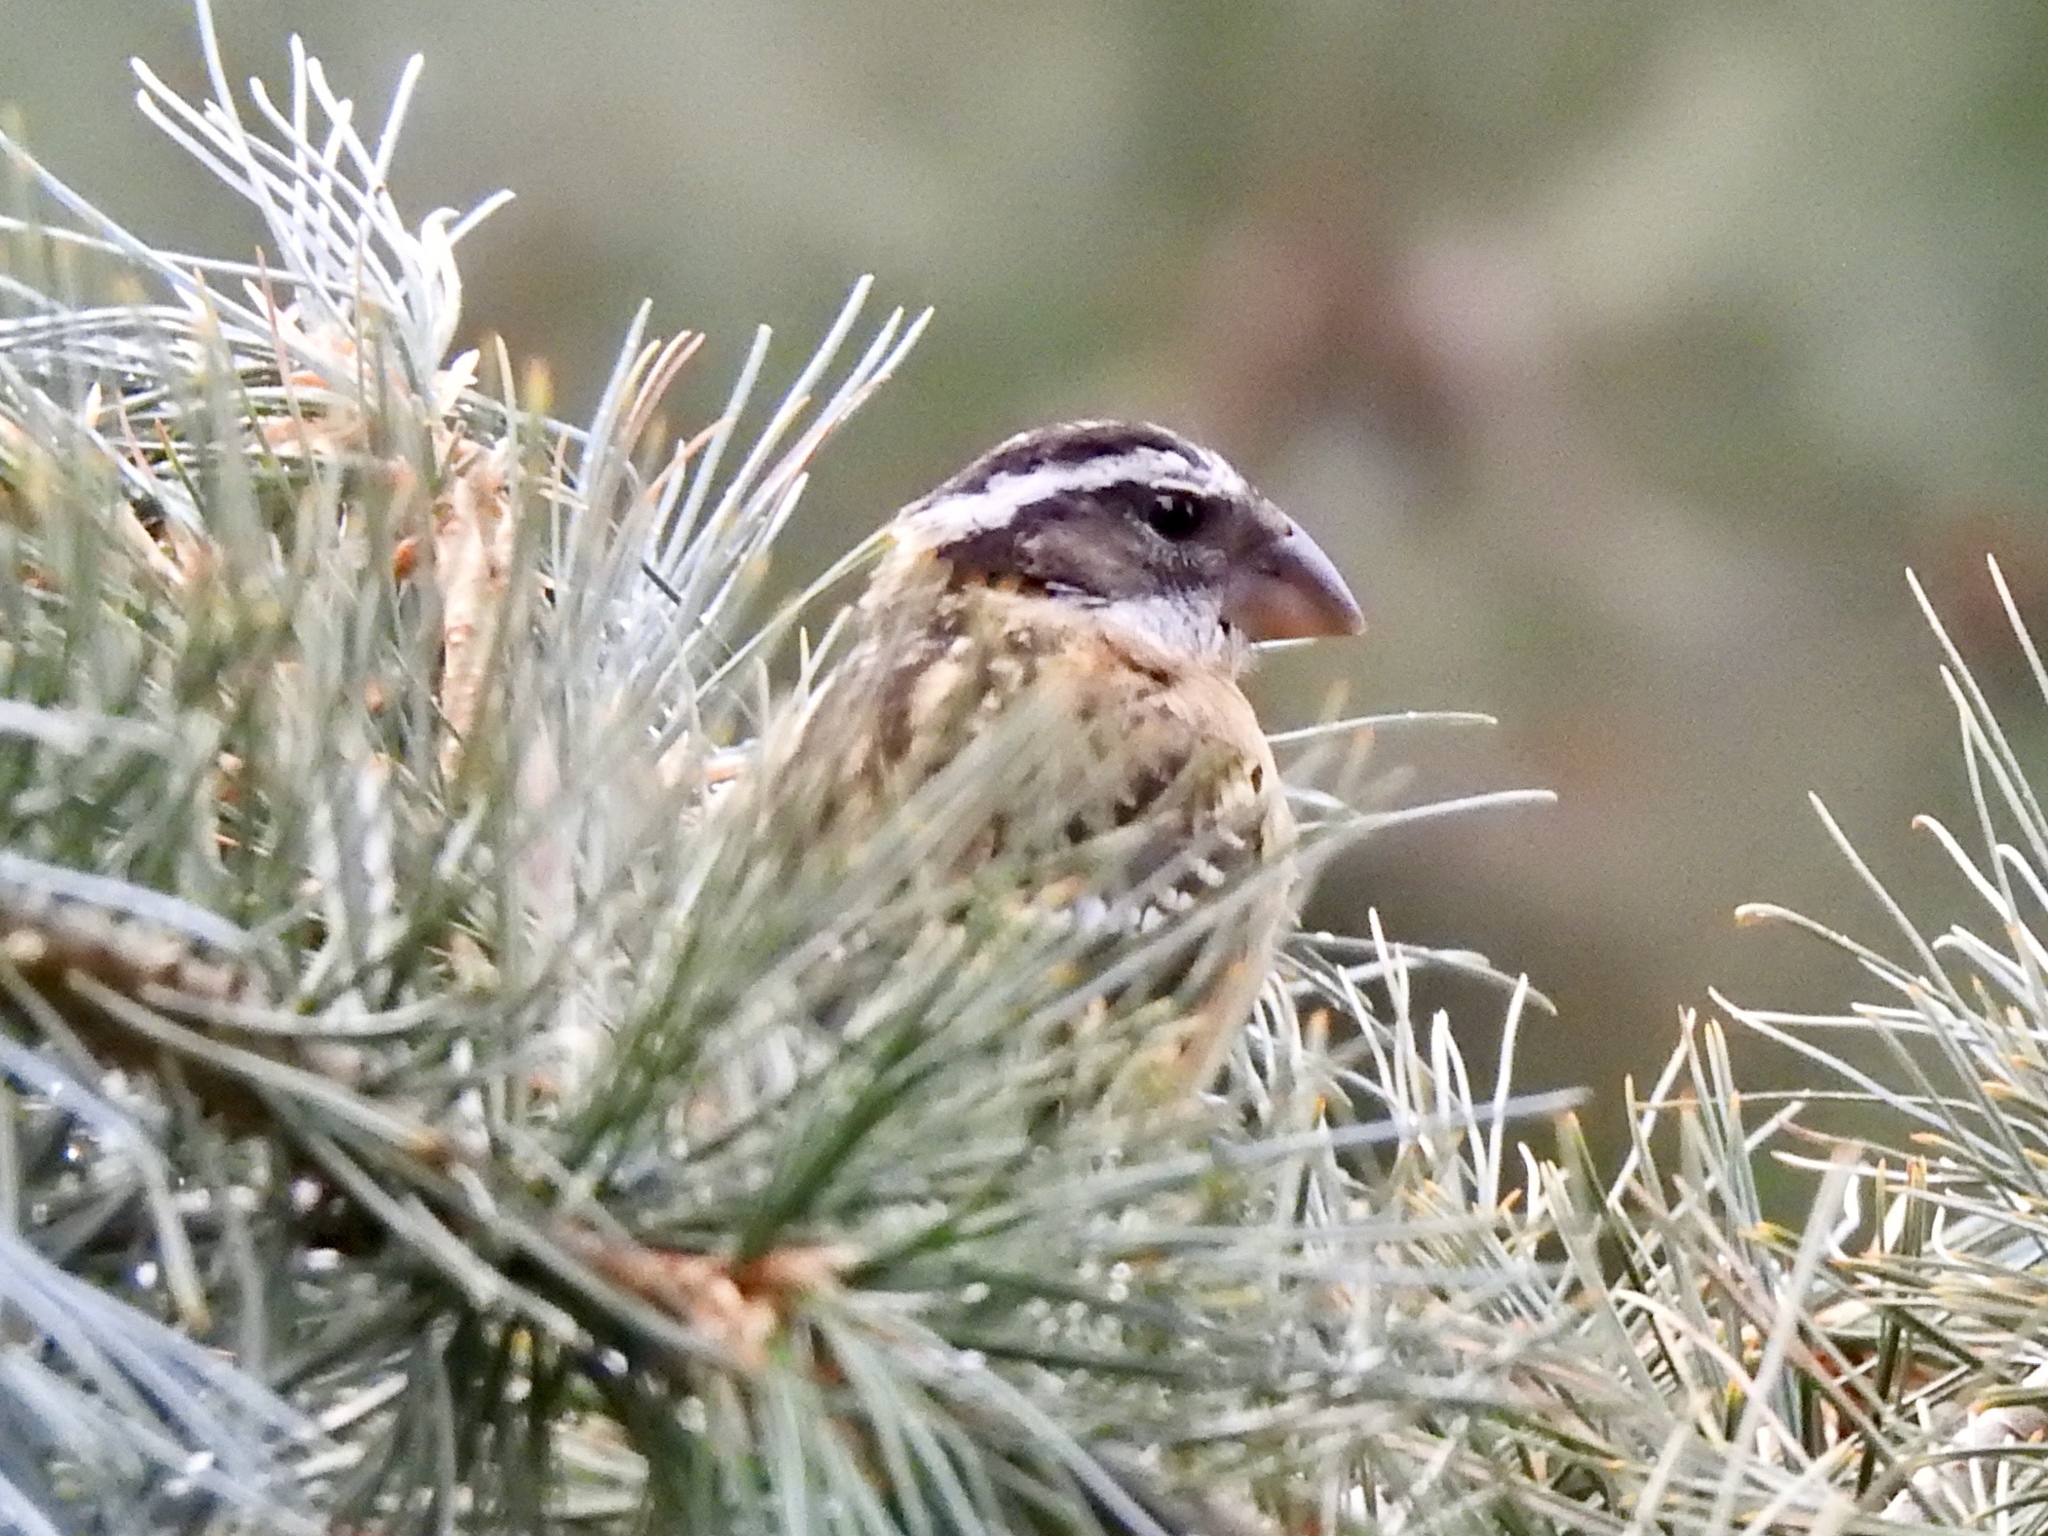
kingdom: Animalia
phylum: Chordata
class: Aves
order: Passeriformes
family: Cardinalidae
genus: Pheucticus
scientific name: Pheucticus melanocephalus
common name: Black-headed grosbeak
